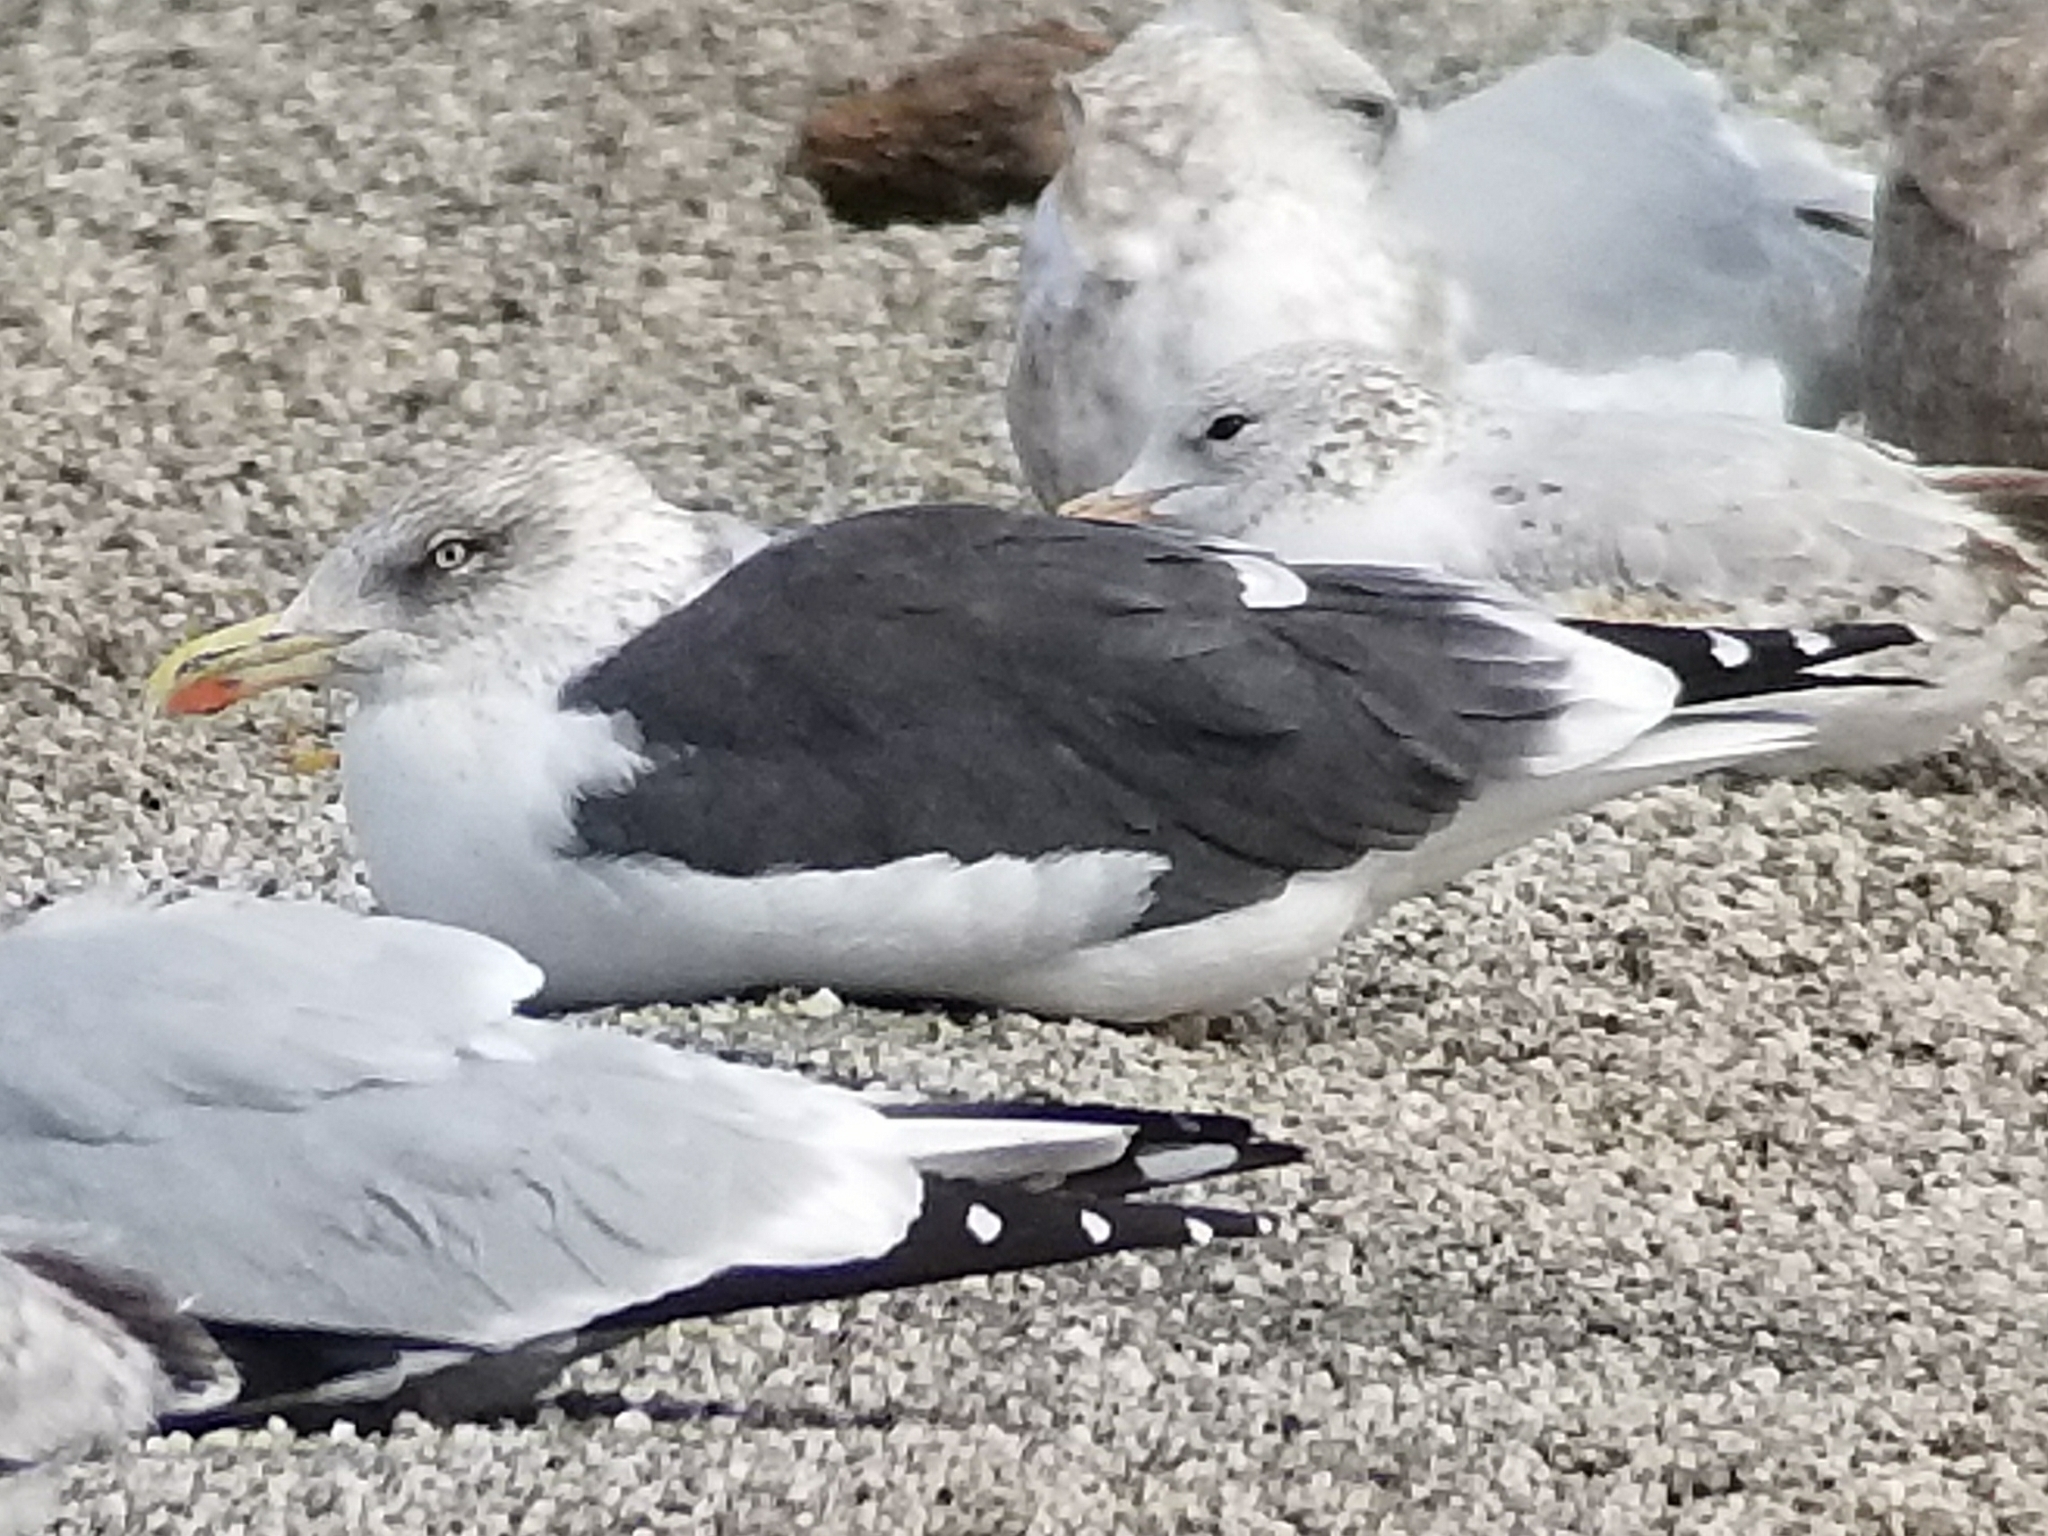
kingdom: Animalia
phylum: Chordata
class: Aves
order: Charadriiformes
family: Laridae
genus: Larus
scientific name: Larus fuscus
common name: Lesser black-backed gull
